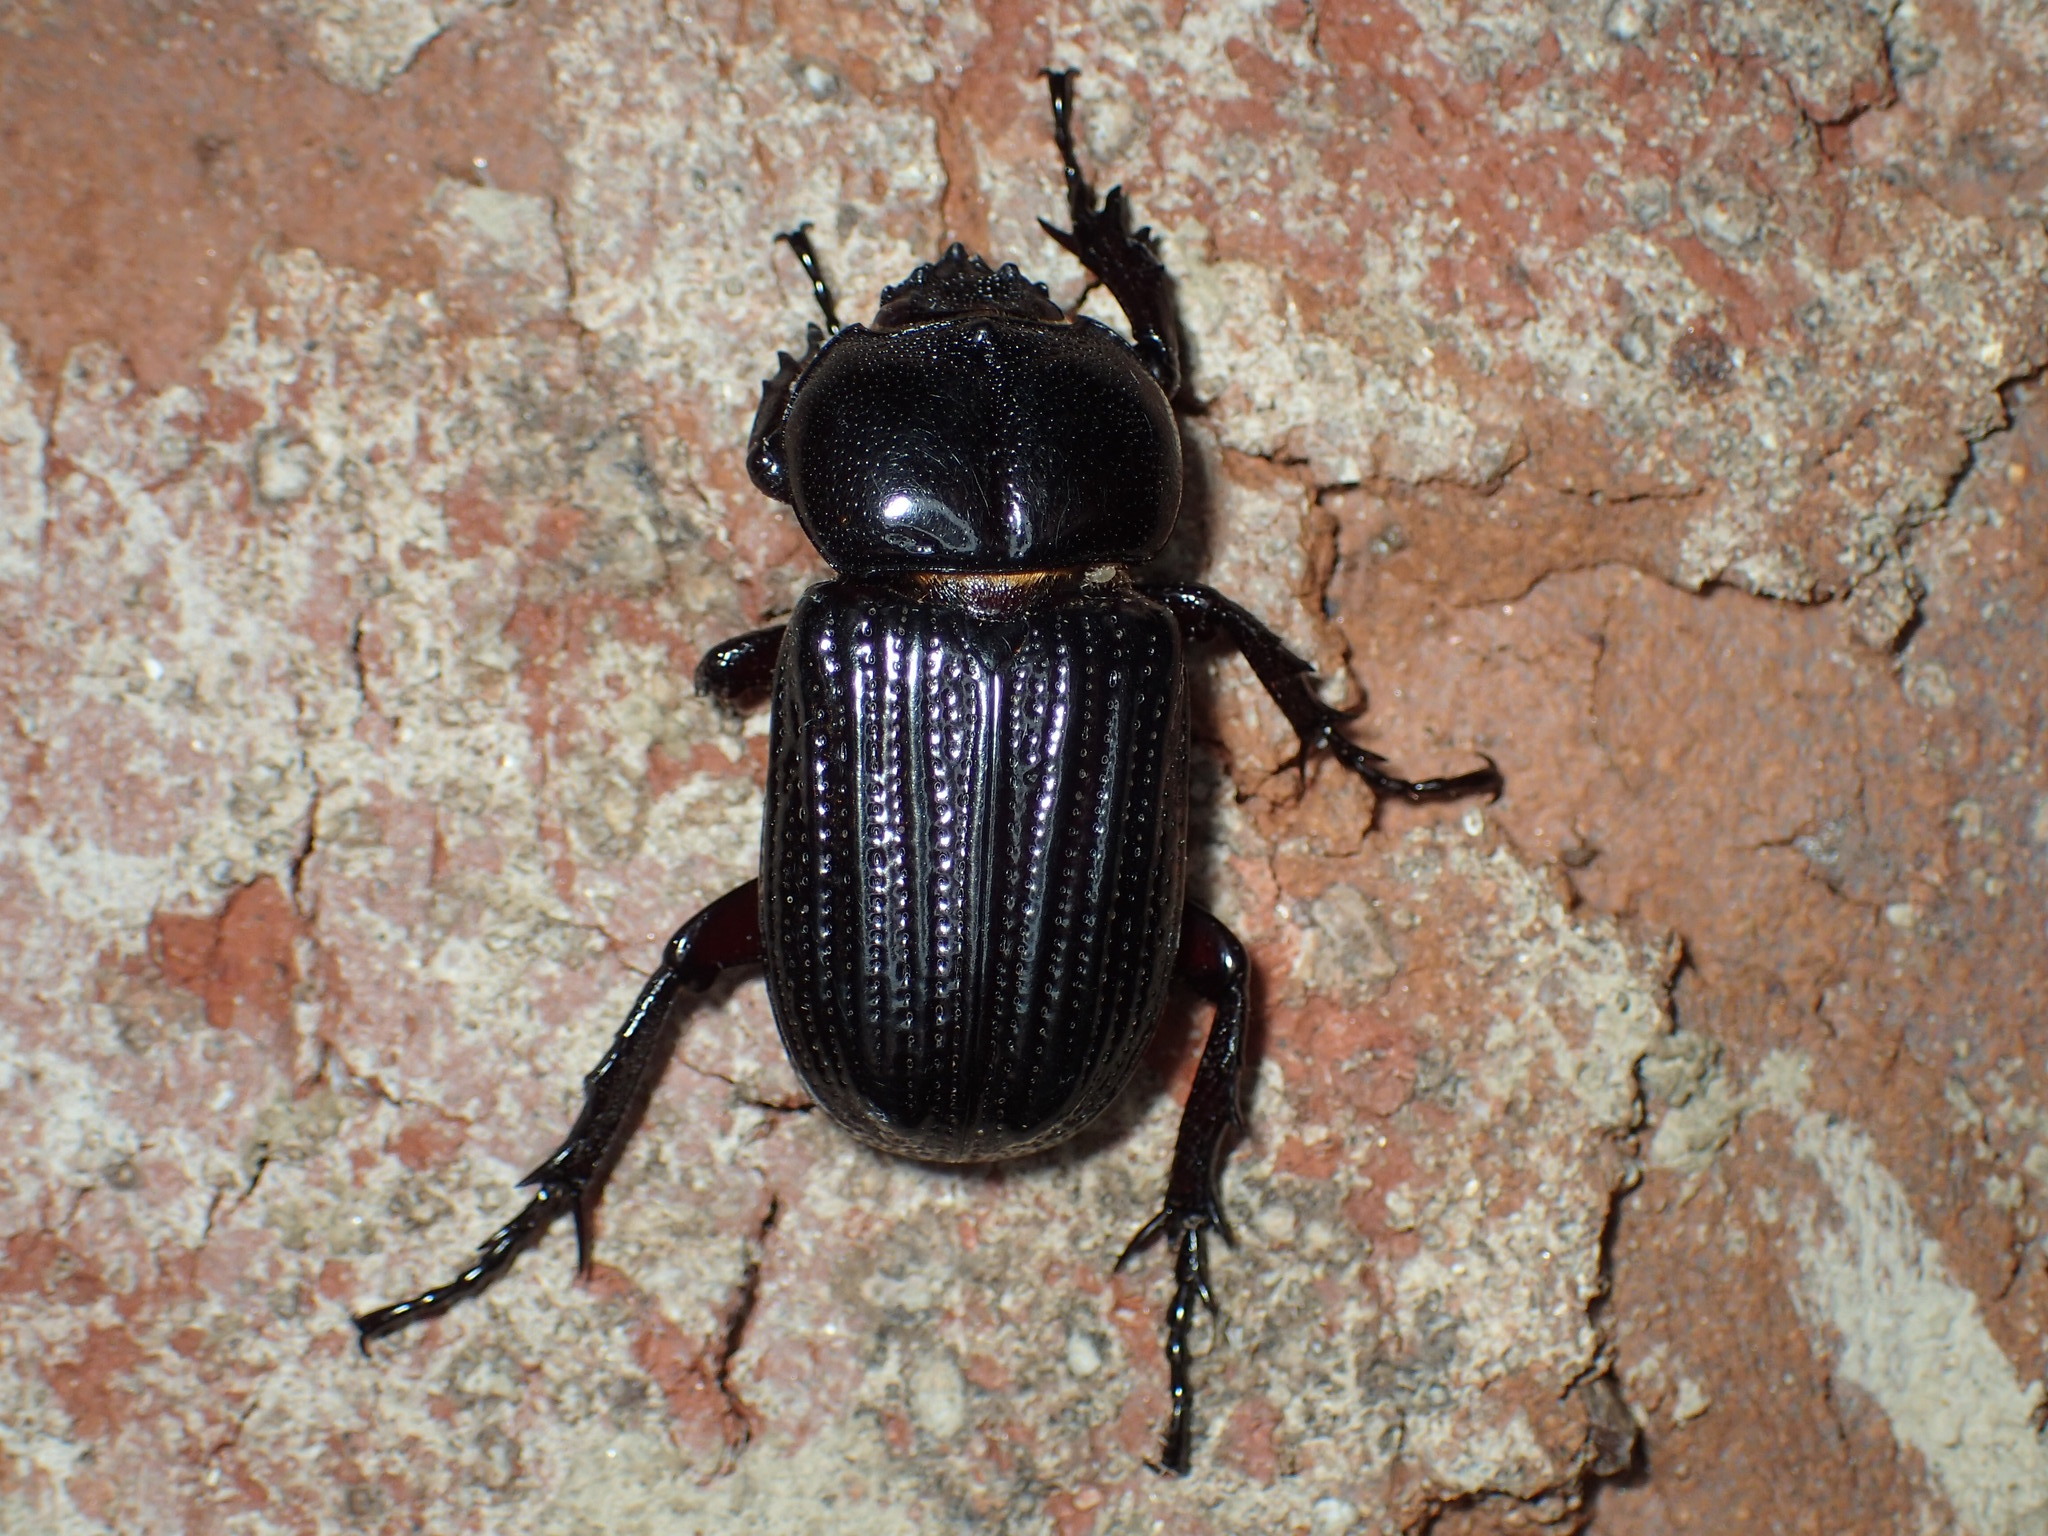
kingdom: Animalia
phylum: Arthropoda
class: Insecta
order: Coleoptera
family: Scarabaeidae
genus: Phileurus
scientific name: Phileurus valgus
